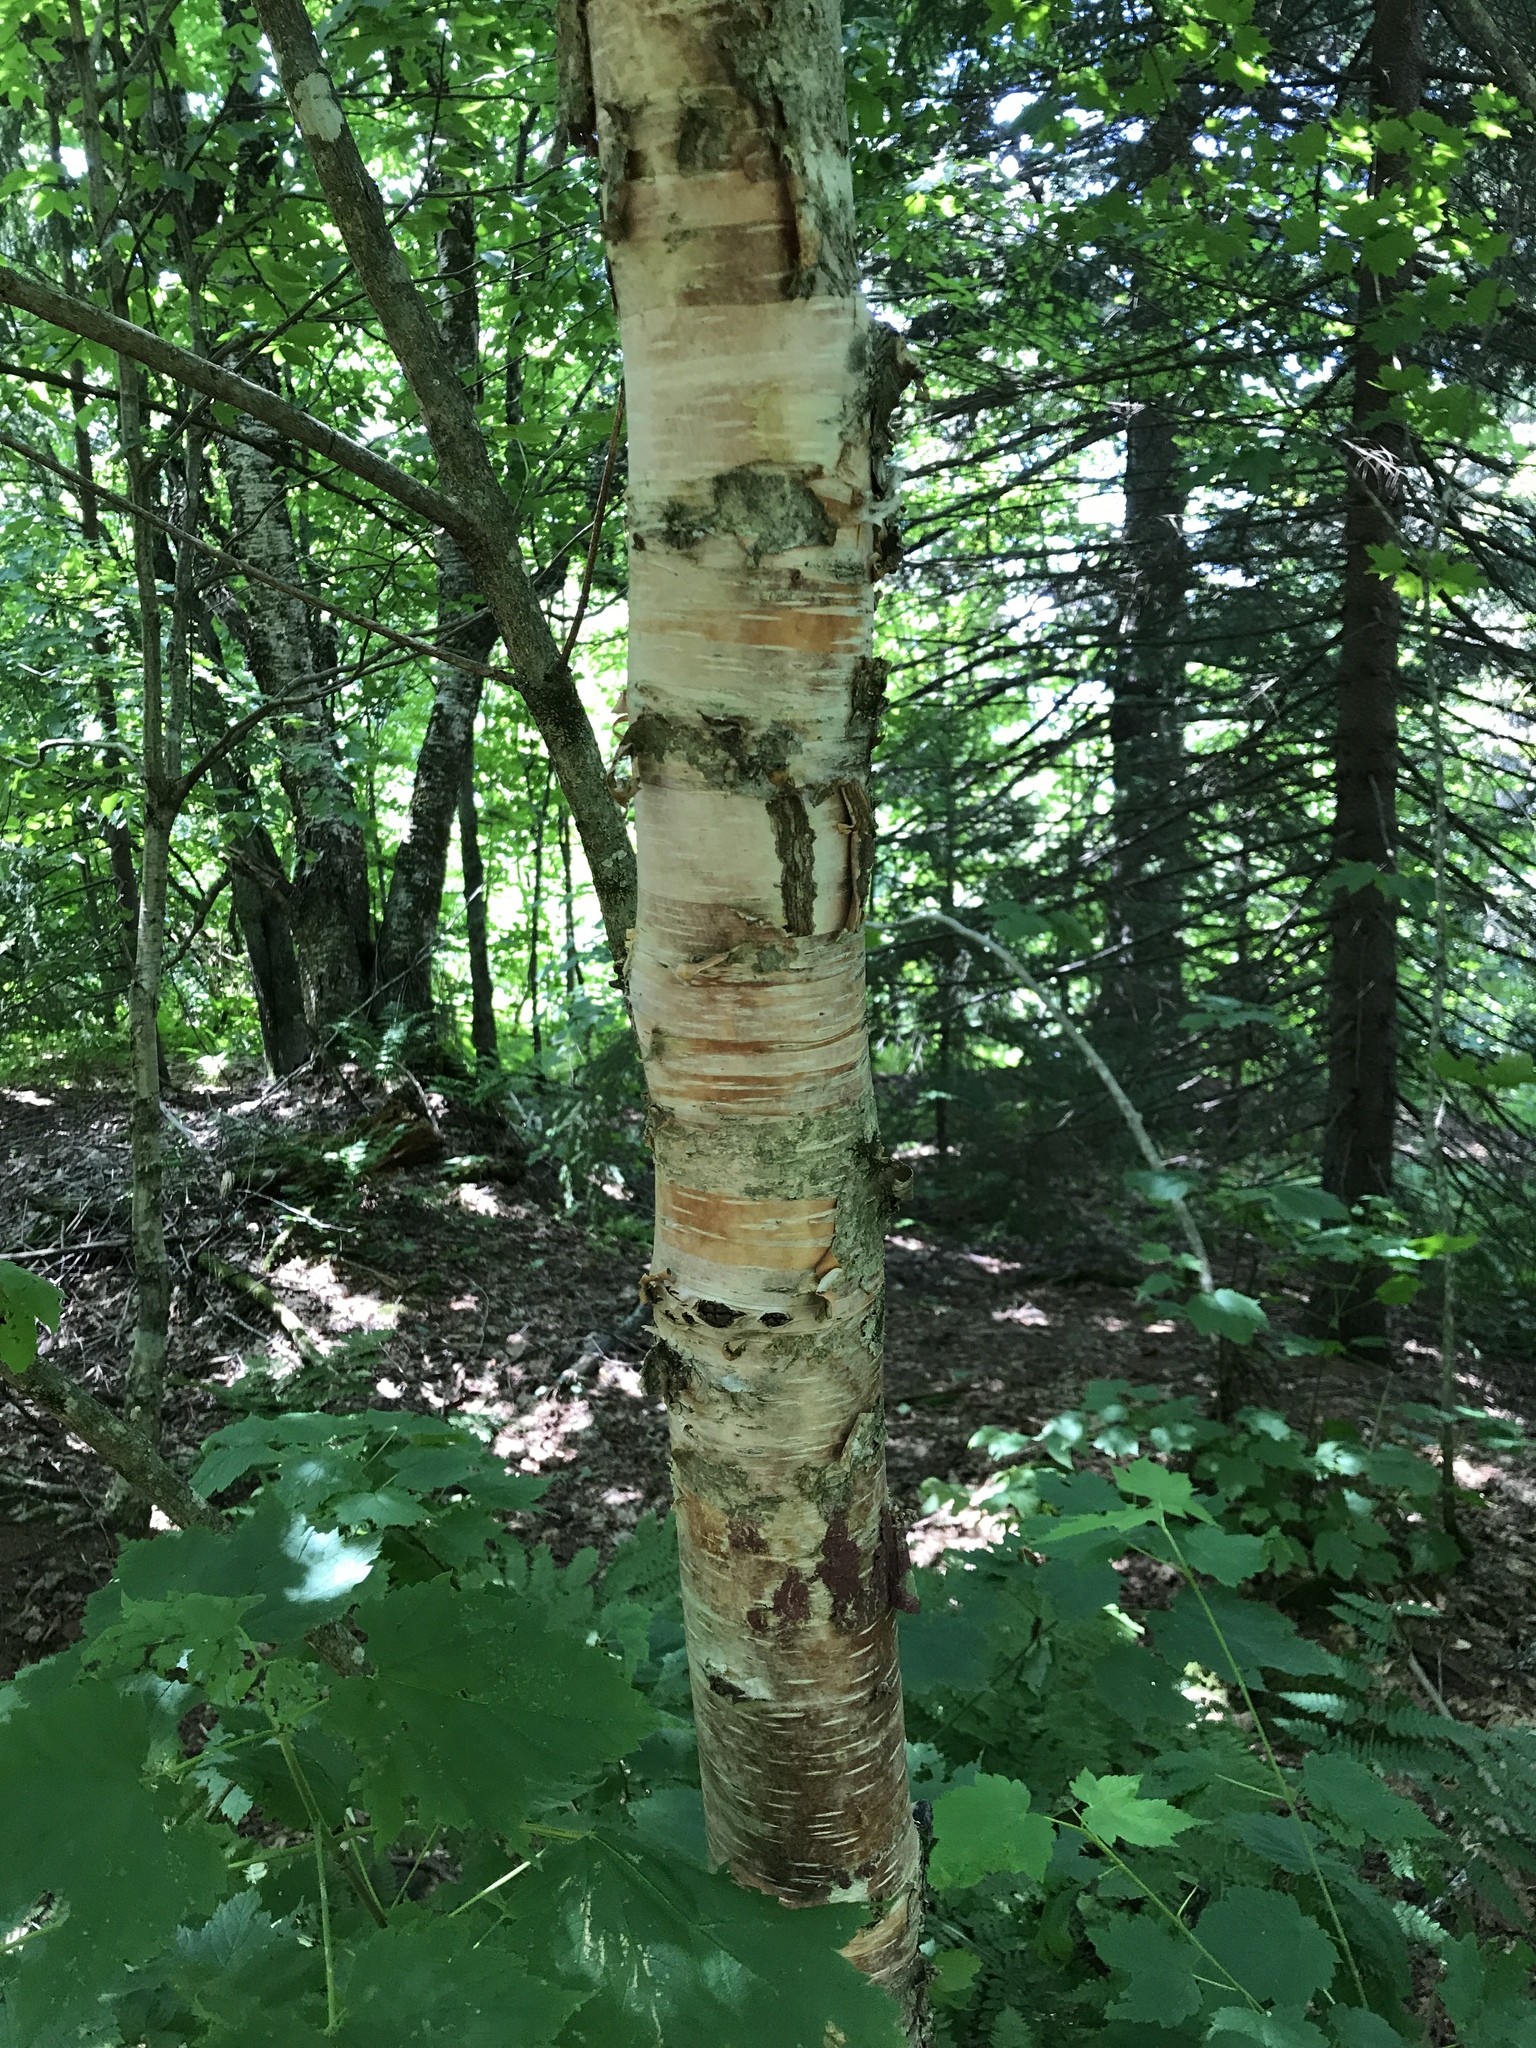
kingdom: Plantae
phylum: Tracheophyta
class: Magnoliopsida
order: Fagales
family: Betulaceae
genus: Betula
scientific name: Betula cordifolia
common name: Mountain white birch
